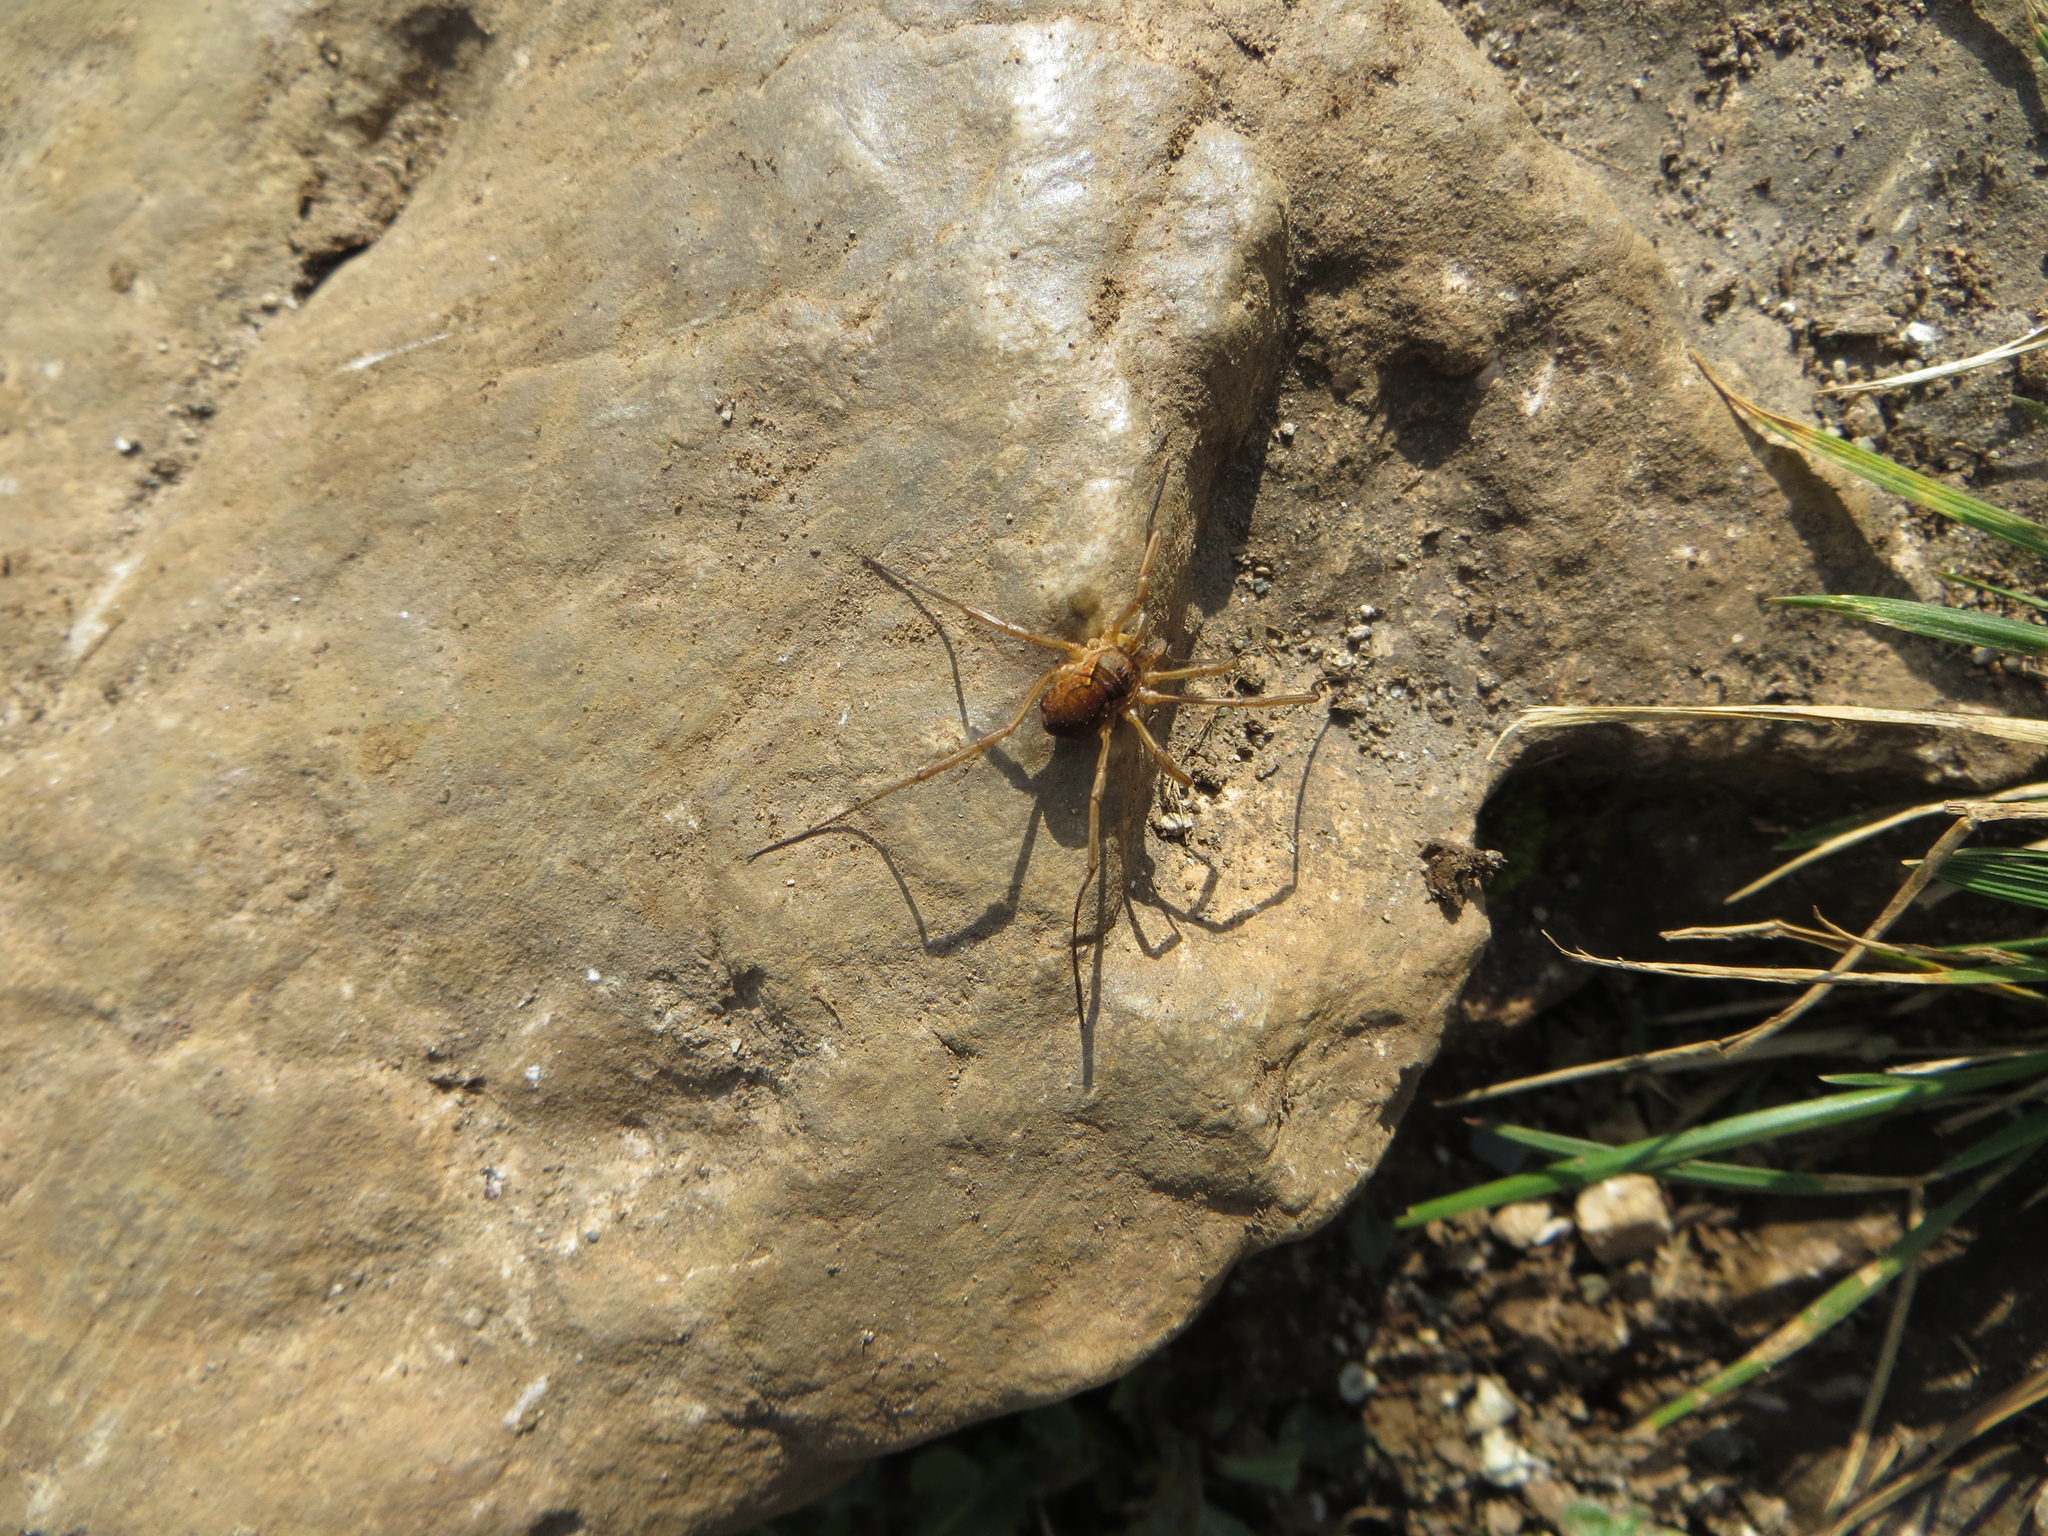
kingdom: Animalia
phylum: Arthropoda
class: Arachnida
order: Opiliones
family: Phalangiidae
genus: Mitopus
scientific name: Mitopus morio
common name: Saddleback harvestman
